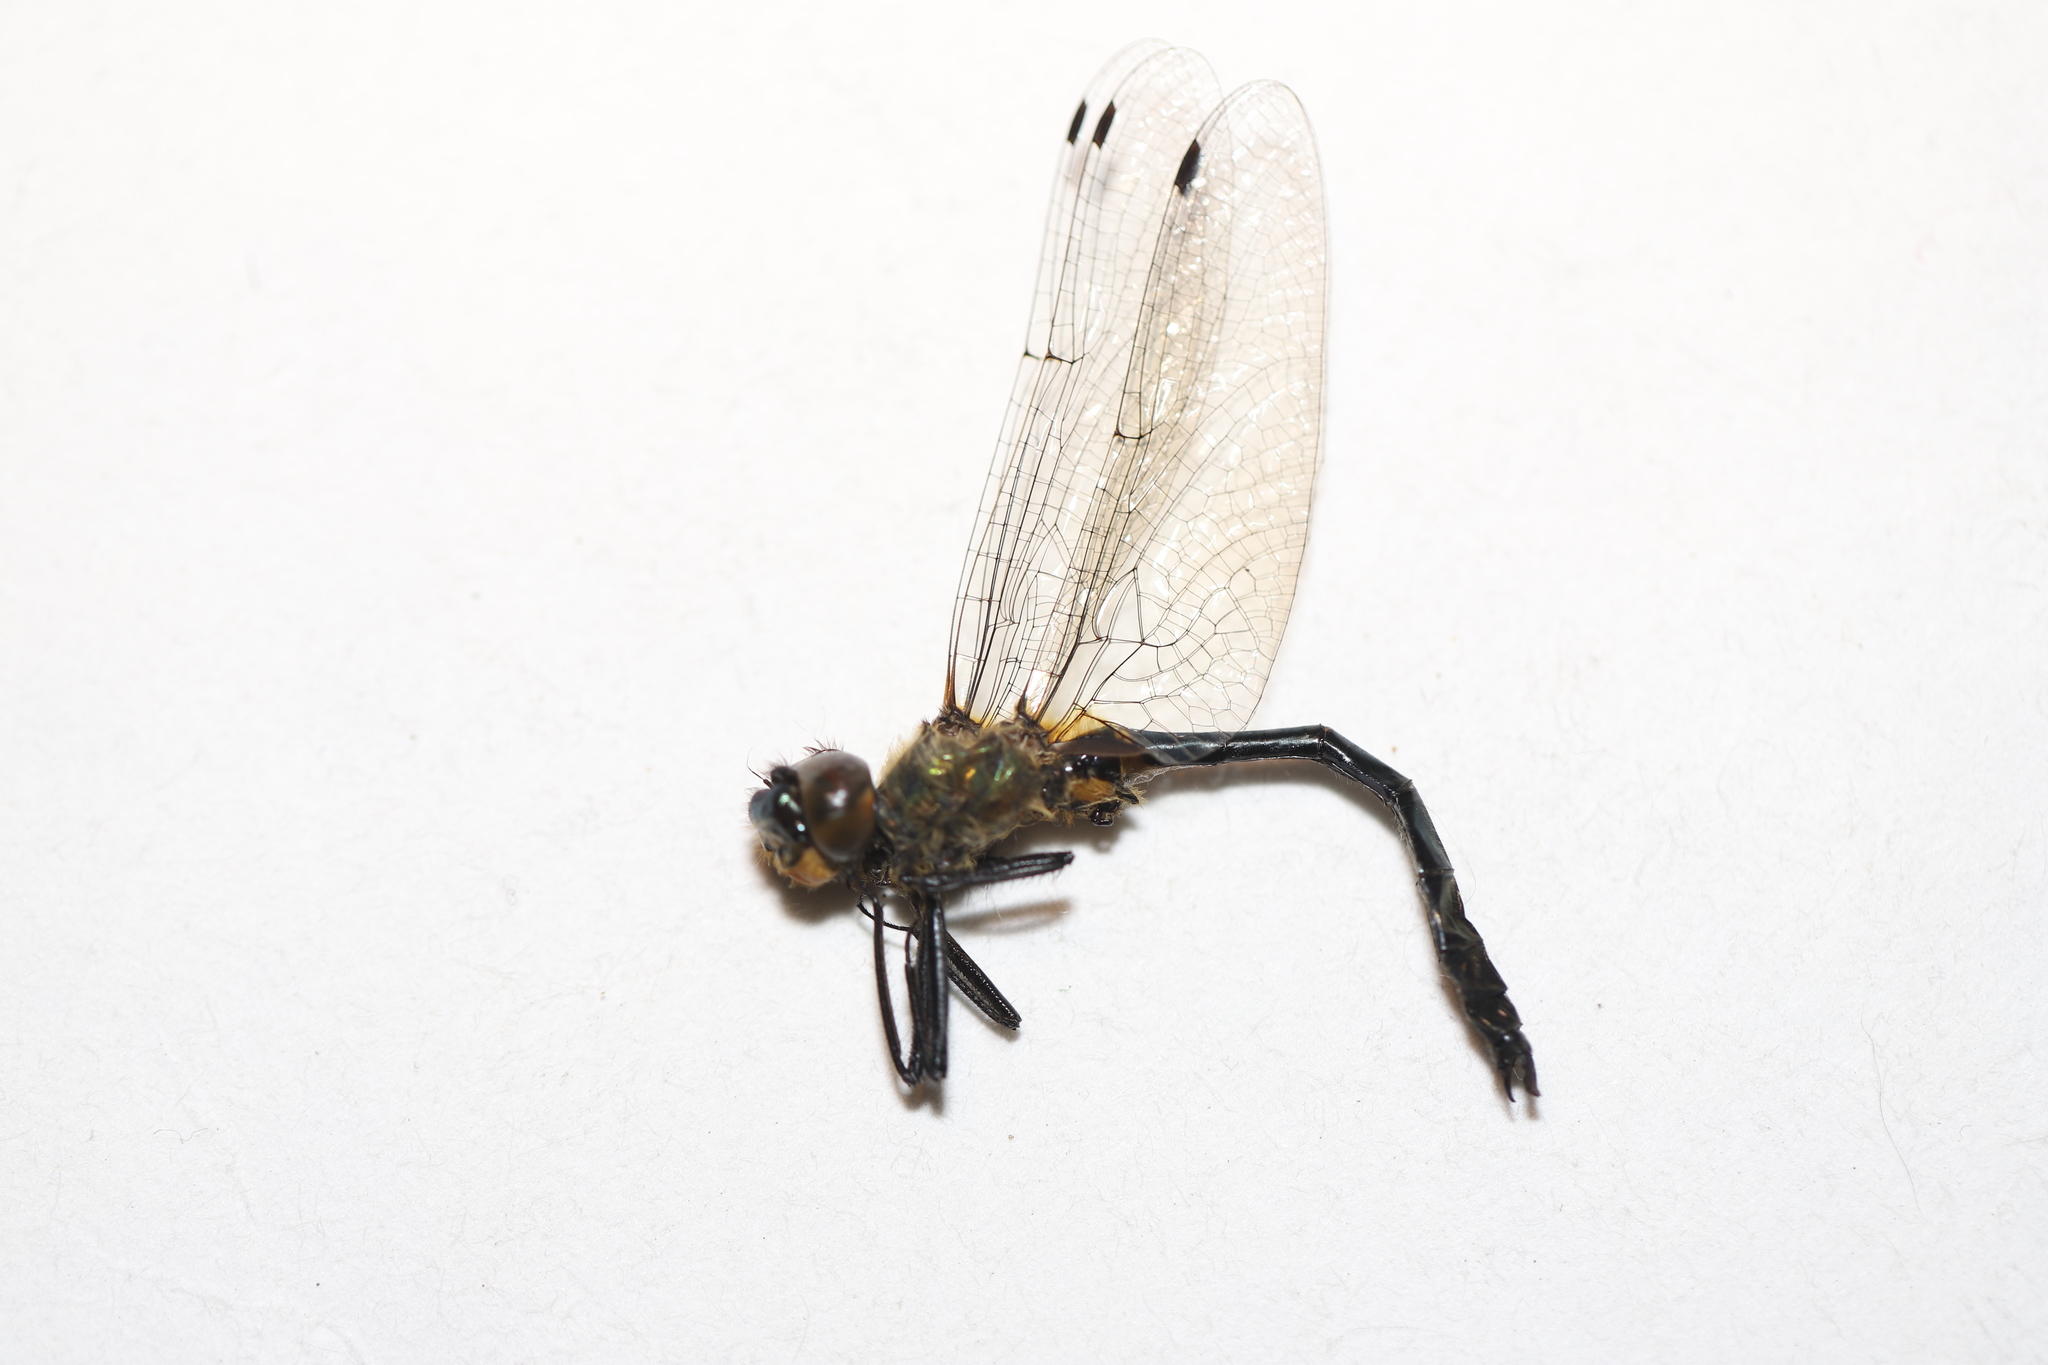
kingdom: Animalia
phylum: Arthropoda
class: Insecta
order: Odonata
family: Corduliidae
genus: Dorocordulia
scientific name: Dorocordulia libera
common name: Racket-tailed emerald
